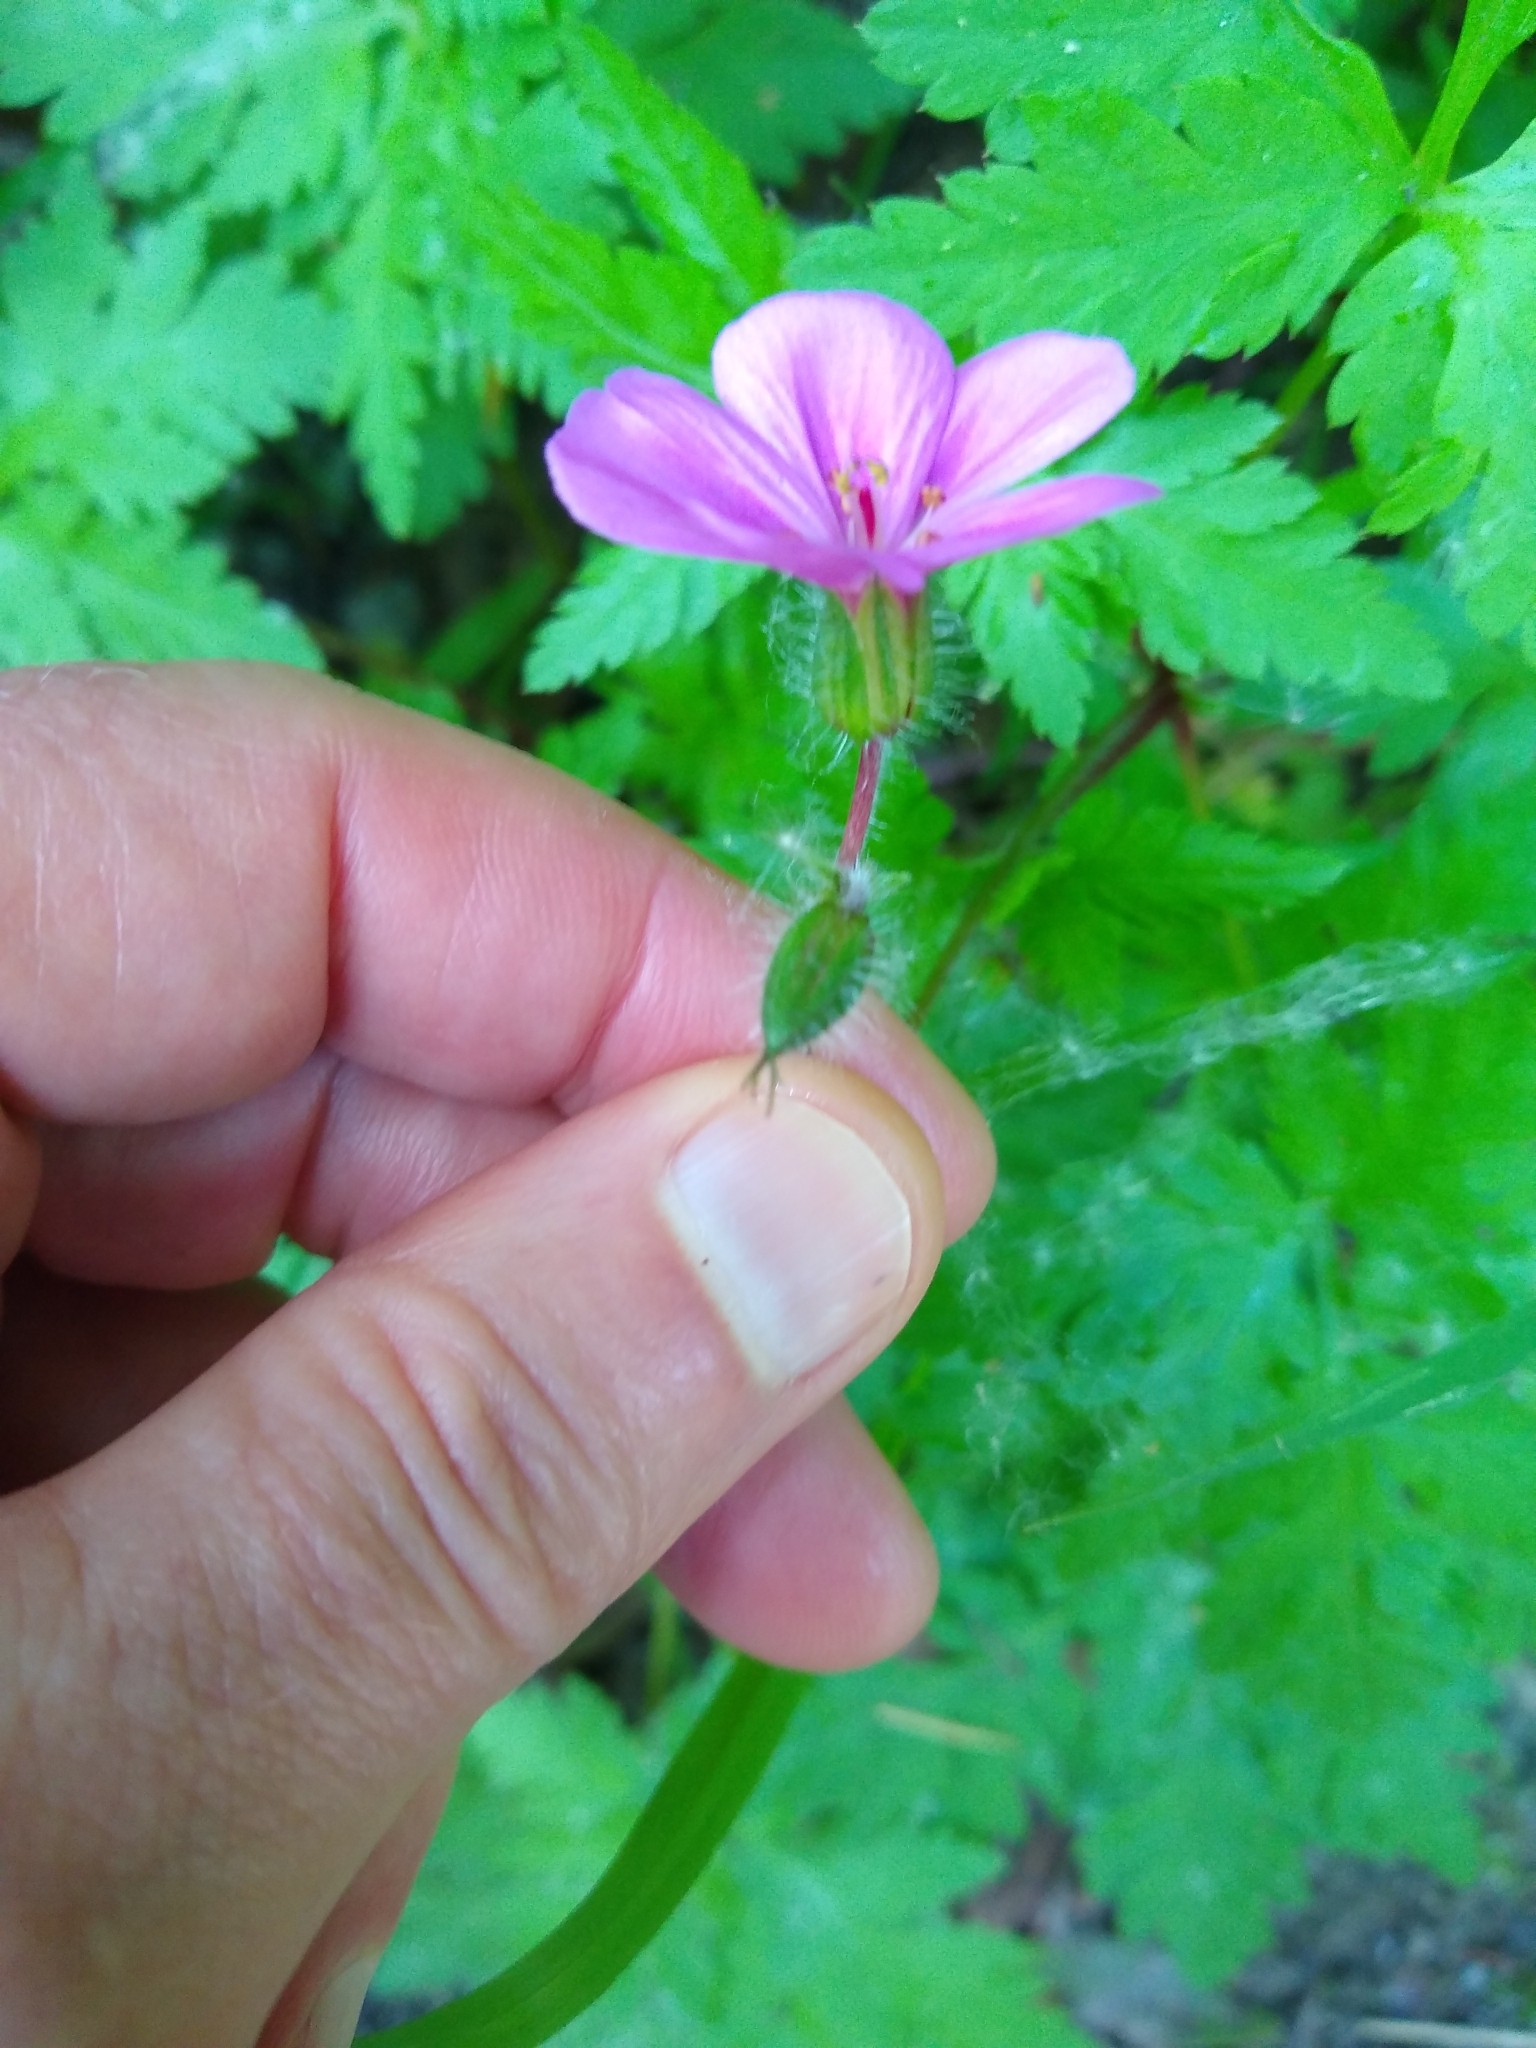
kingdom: Plantae
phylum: Tracheophyta
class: Magnoliopsida
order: Geraniales
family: Geraniaceae
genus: Geranium
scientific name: Geranium yeoi
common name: Greater herb robert
